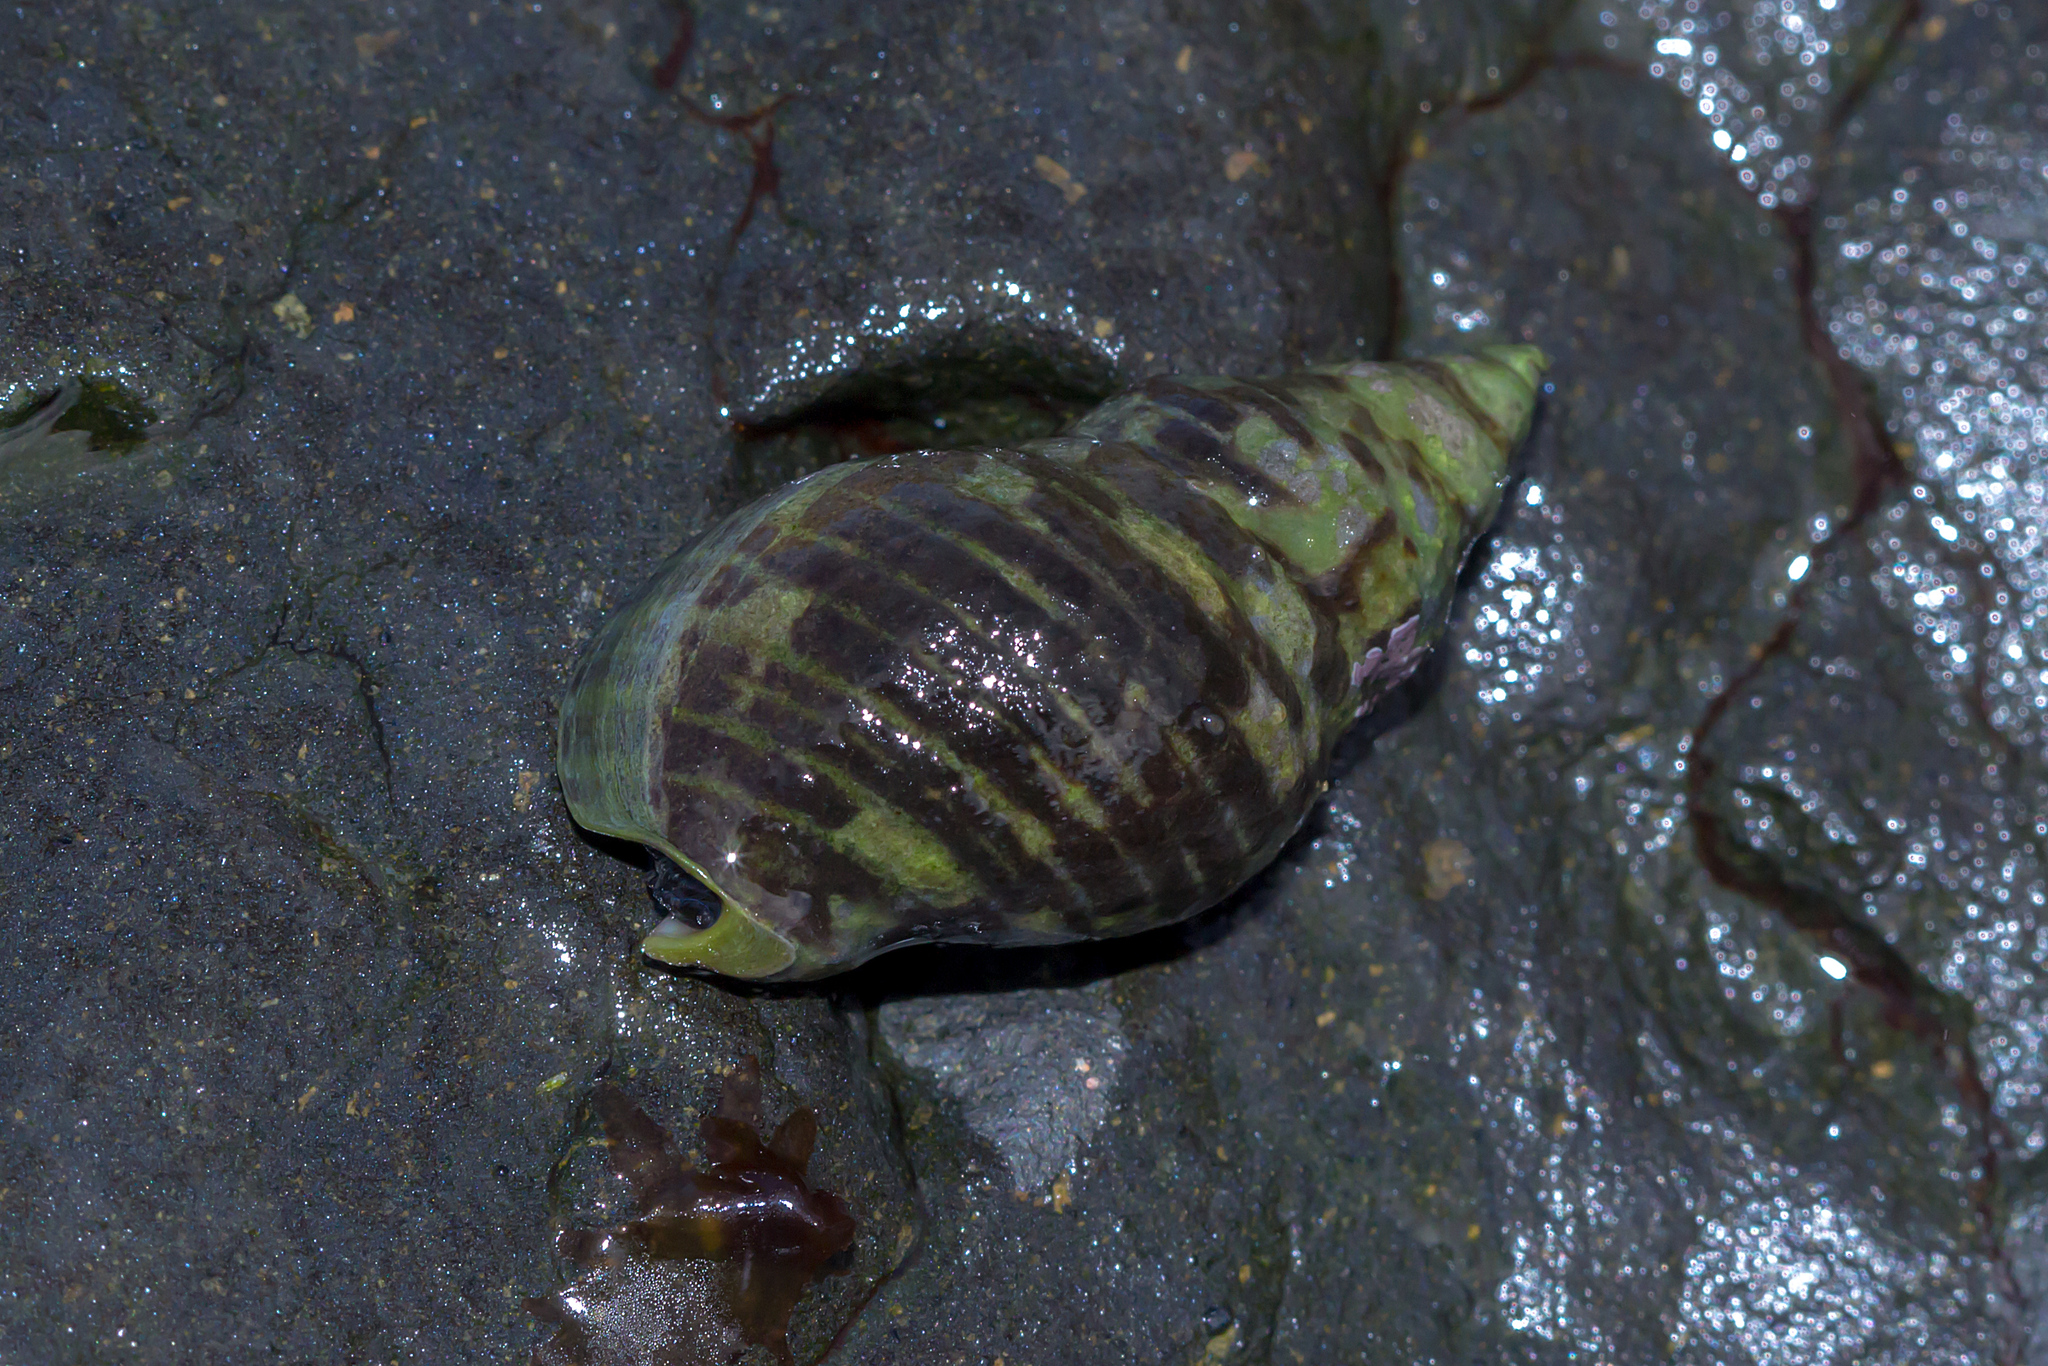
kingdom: Animalia
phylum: Mollusca
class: Gastropoda
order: Neogastropoda
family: Cominellidae
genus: Cominella
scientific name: Cominella lineolata
